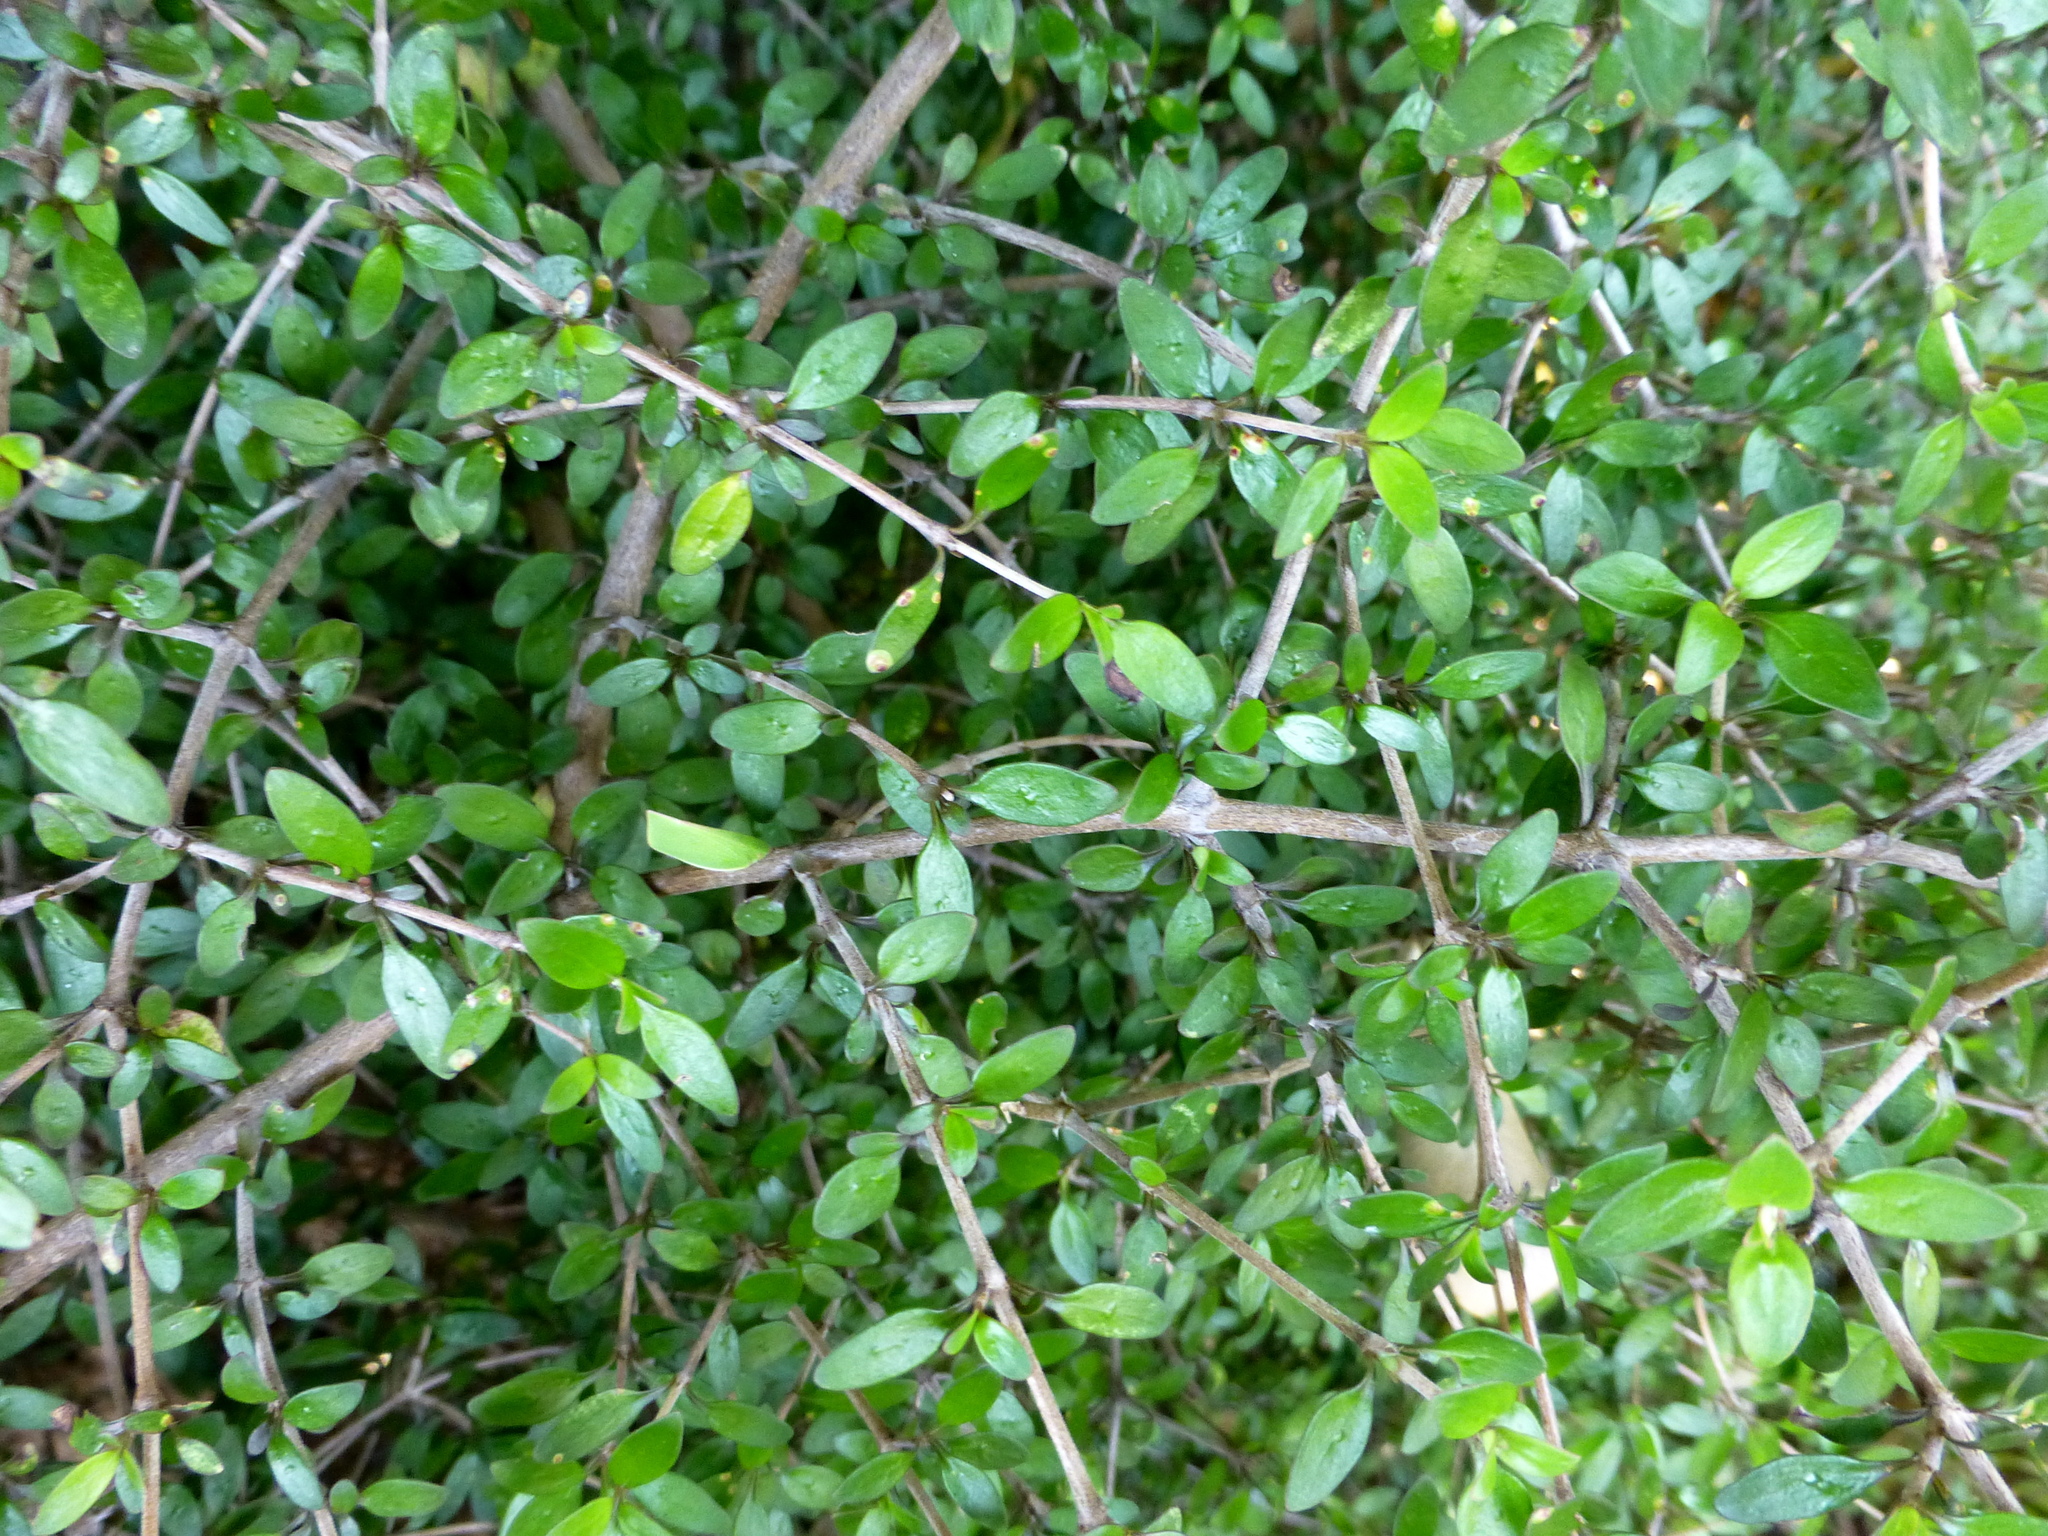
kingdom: Plantae
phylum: Tracheophyta
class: Magnoliopsida
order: Gentianales
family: Rubiaceae
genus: Coprosma
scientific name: Coprosma propinqua
